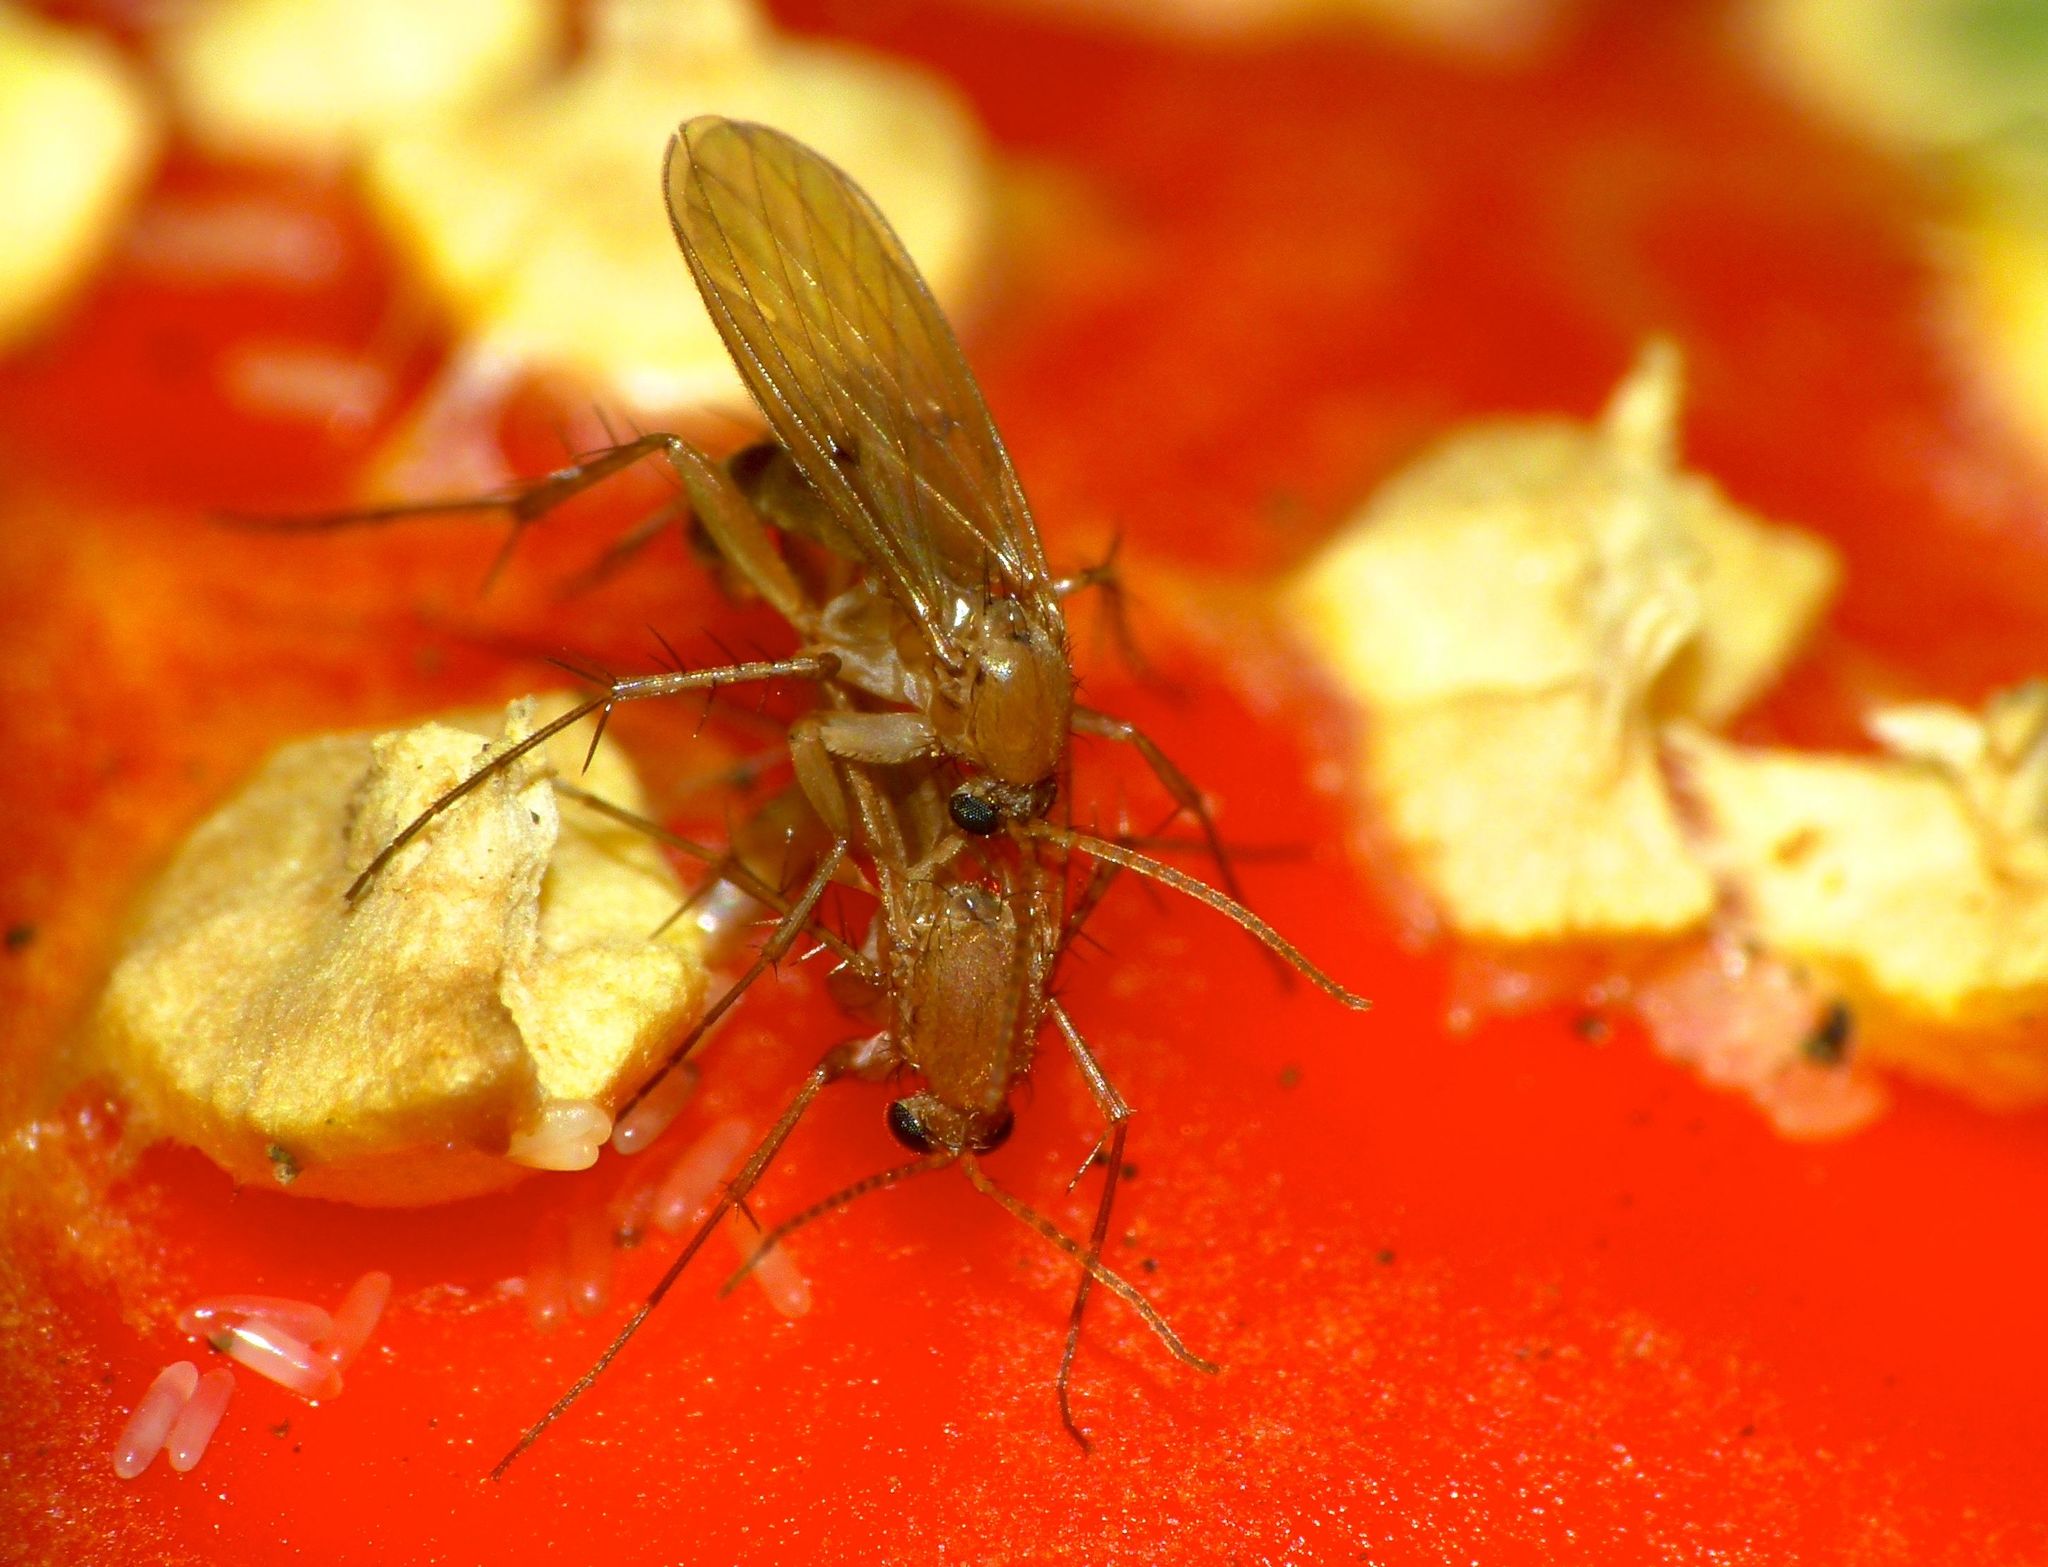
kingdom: Animalia
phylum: Arthropoda
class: Insecta
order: Diptera
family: Mycetophilidae
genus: Mycetophila
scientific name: Mycetophila fagi
